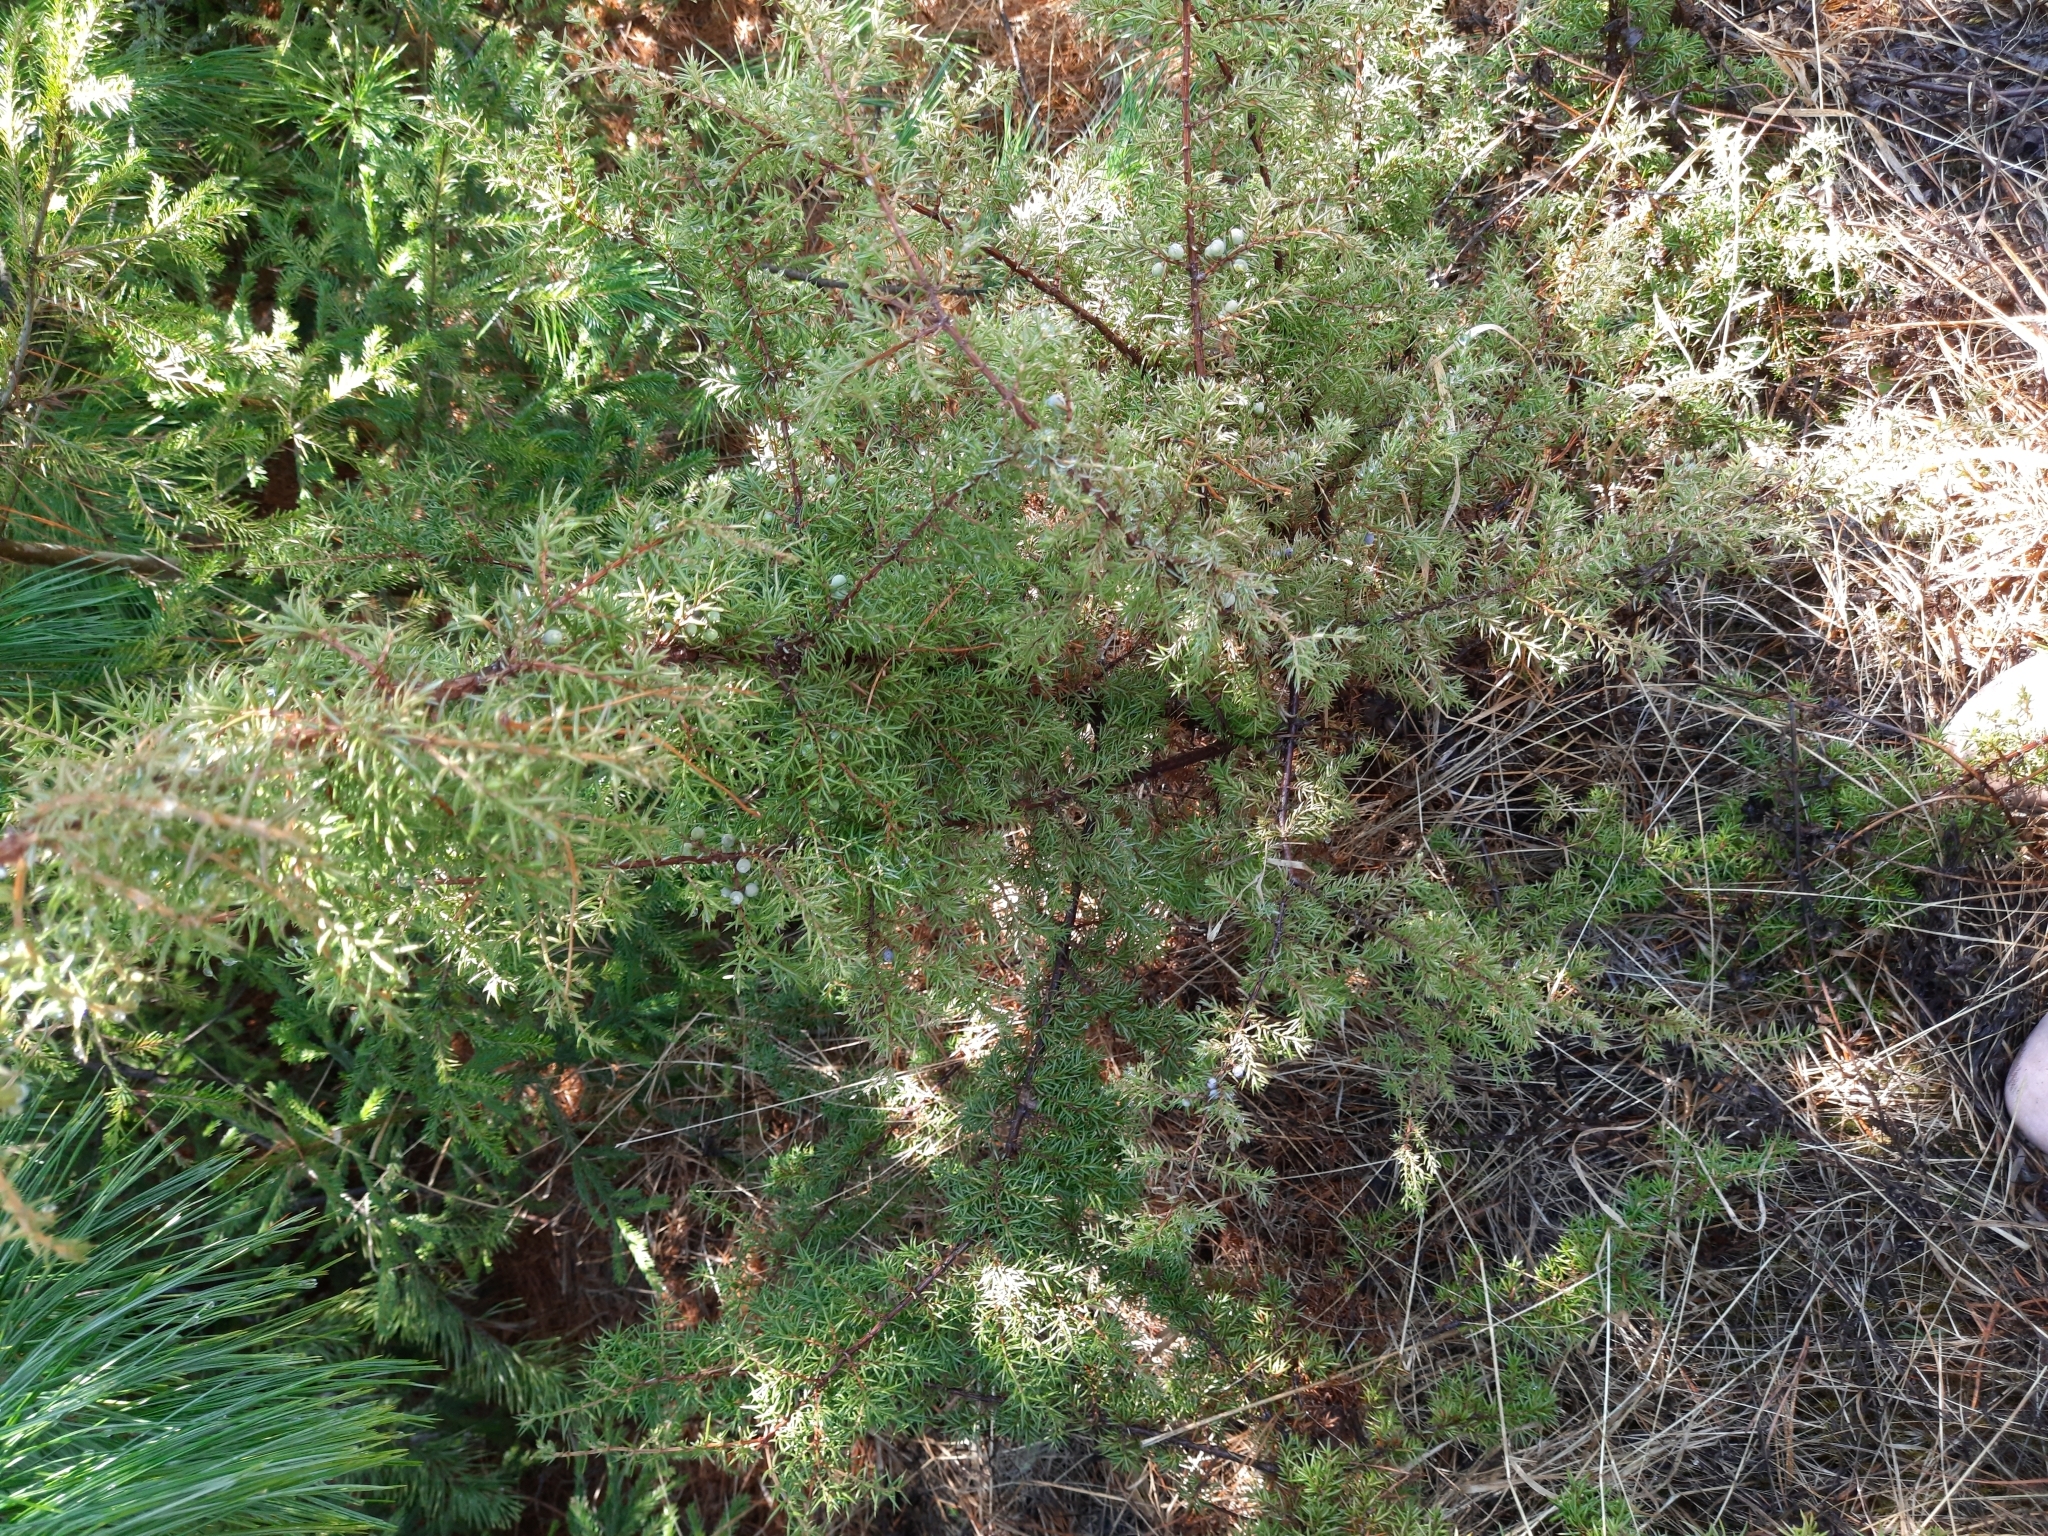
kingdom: Plantae
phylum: Tracheophyta
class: Pinopsida
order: Pinales
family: Cupressaceae
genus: Juniperus
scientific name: Juniperus communis
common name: Common juniper
